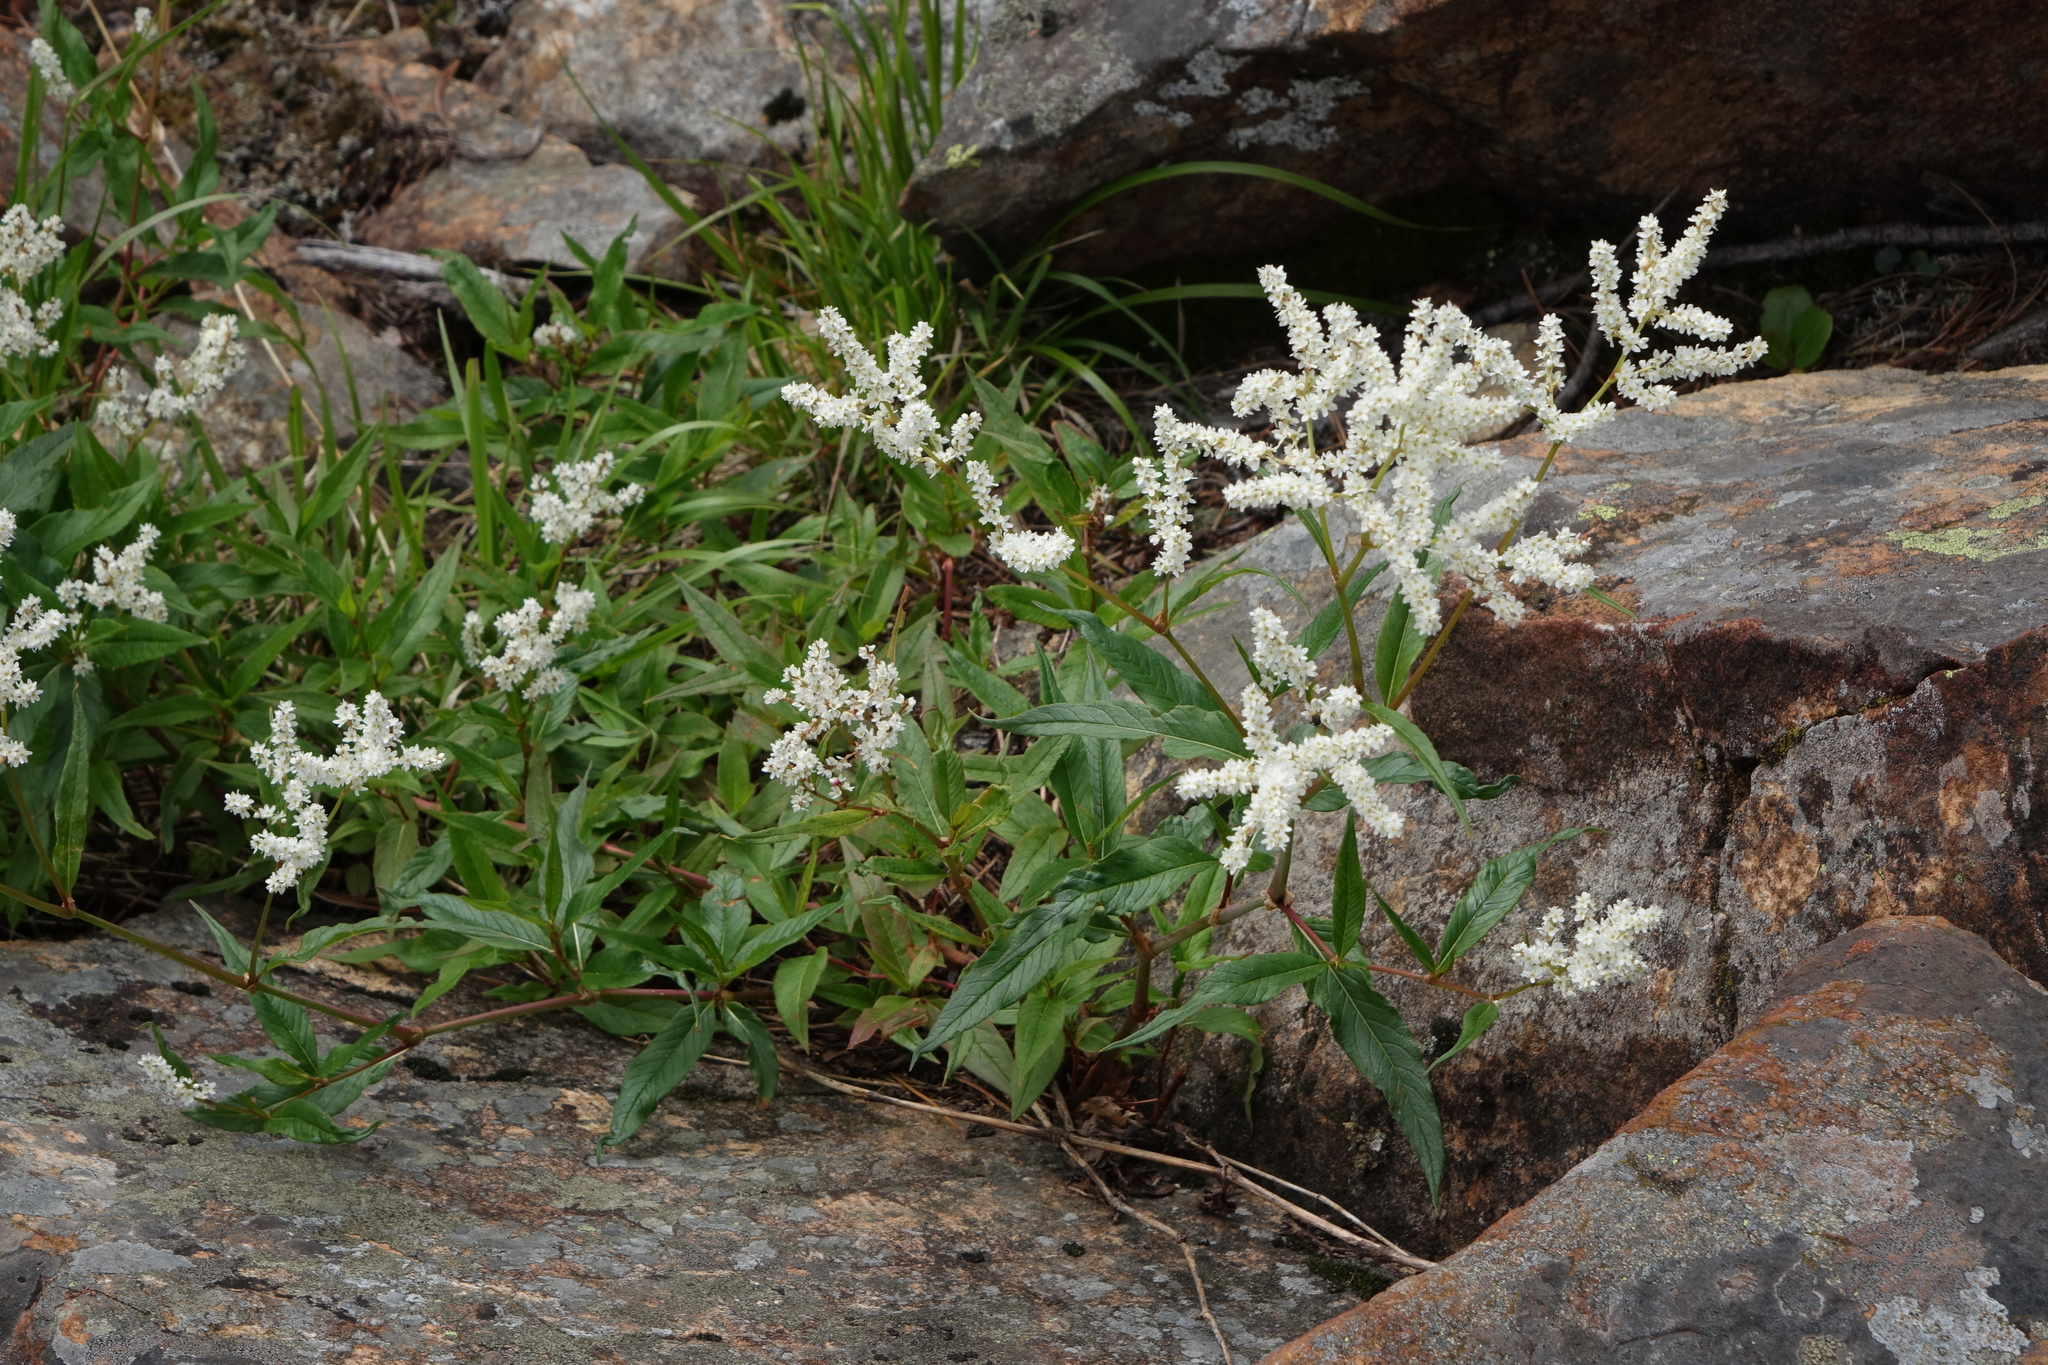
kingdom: Plantae
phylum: Tracheophyta
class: Magnoliopsida
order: Caryophyllales
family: Polygonaceae
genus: Koenigia
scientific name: Koenigia alpina
